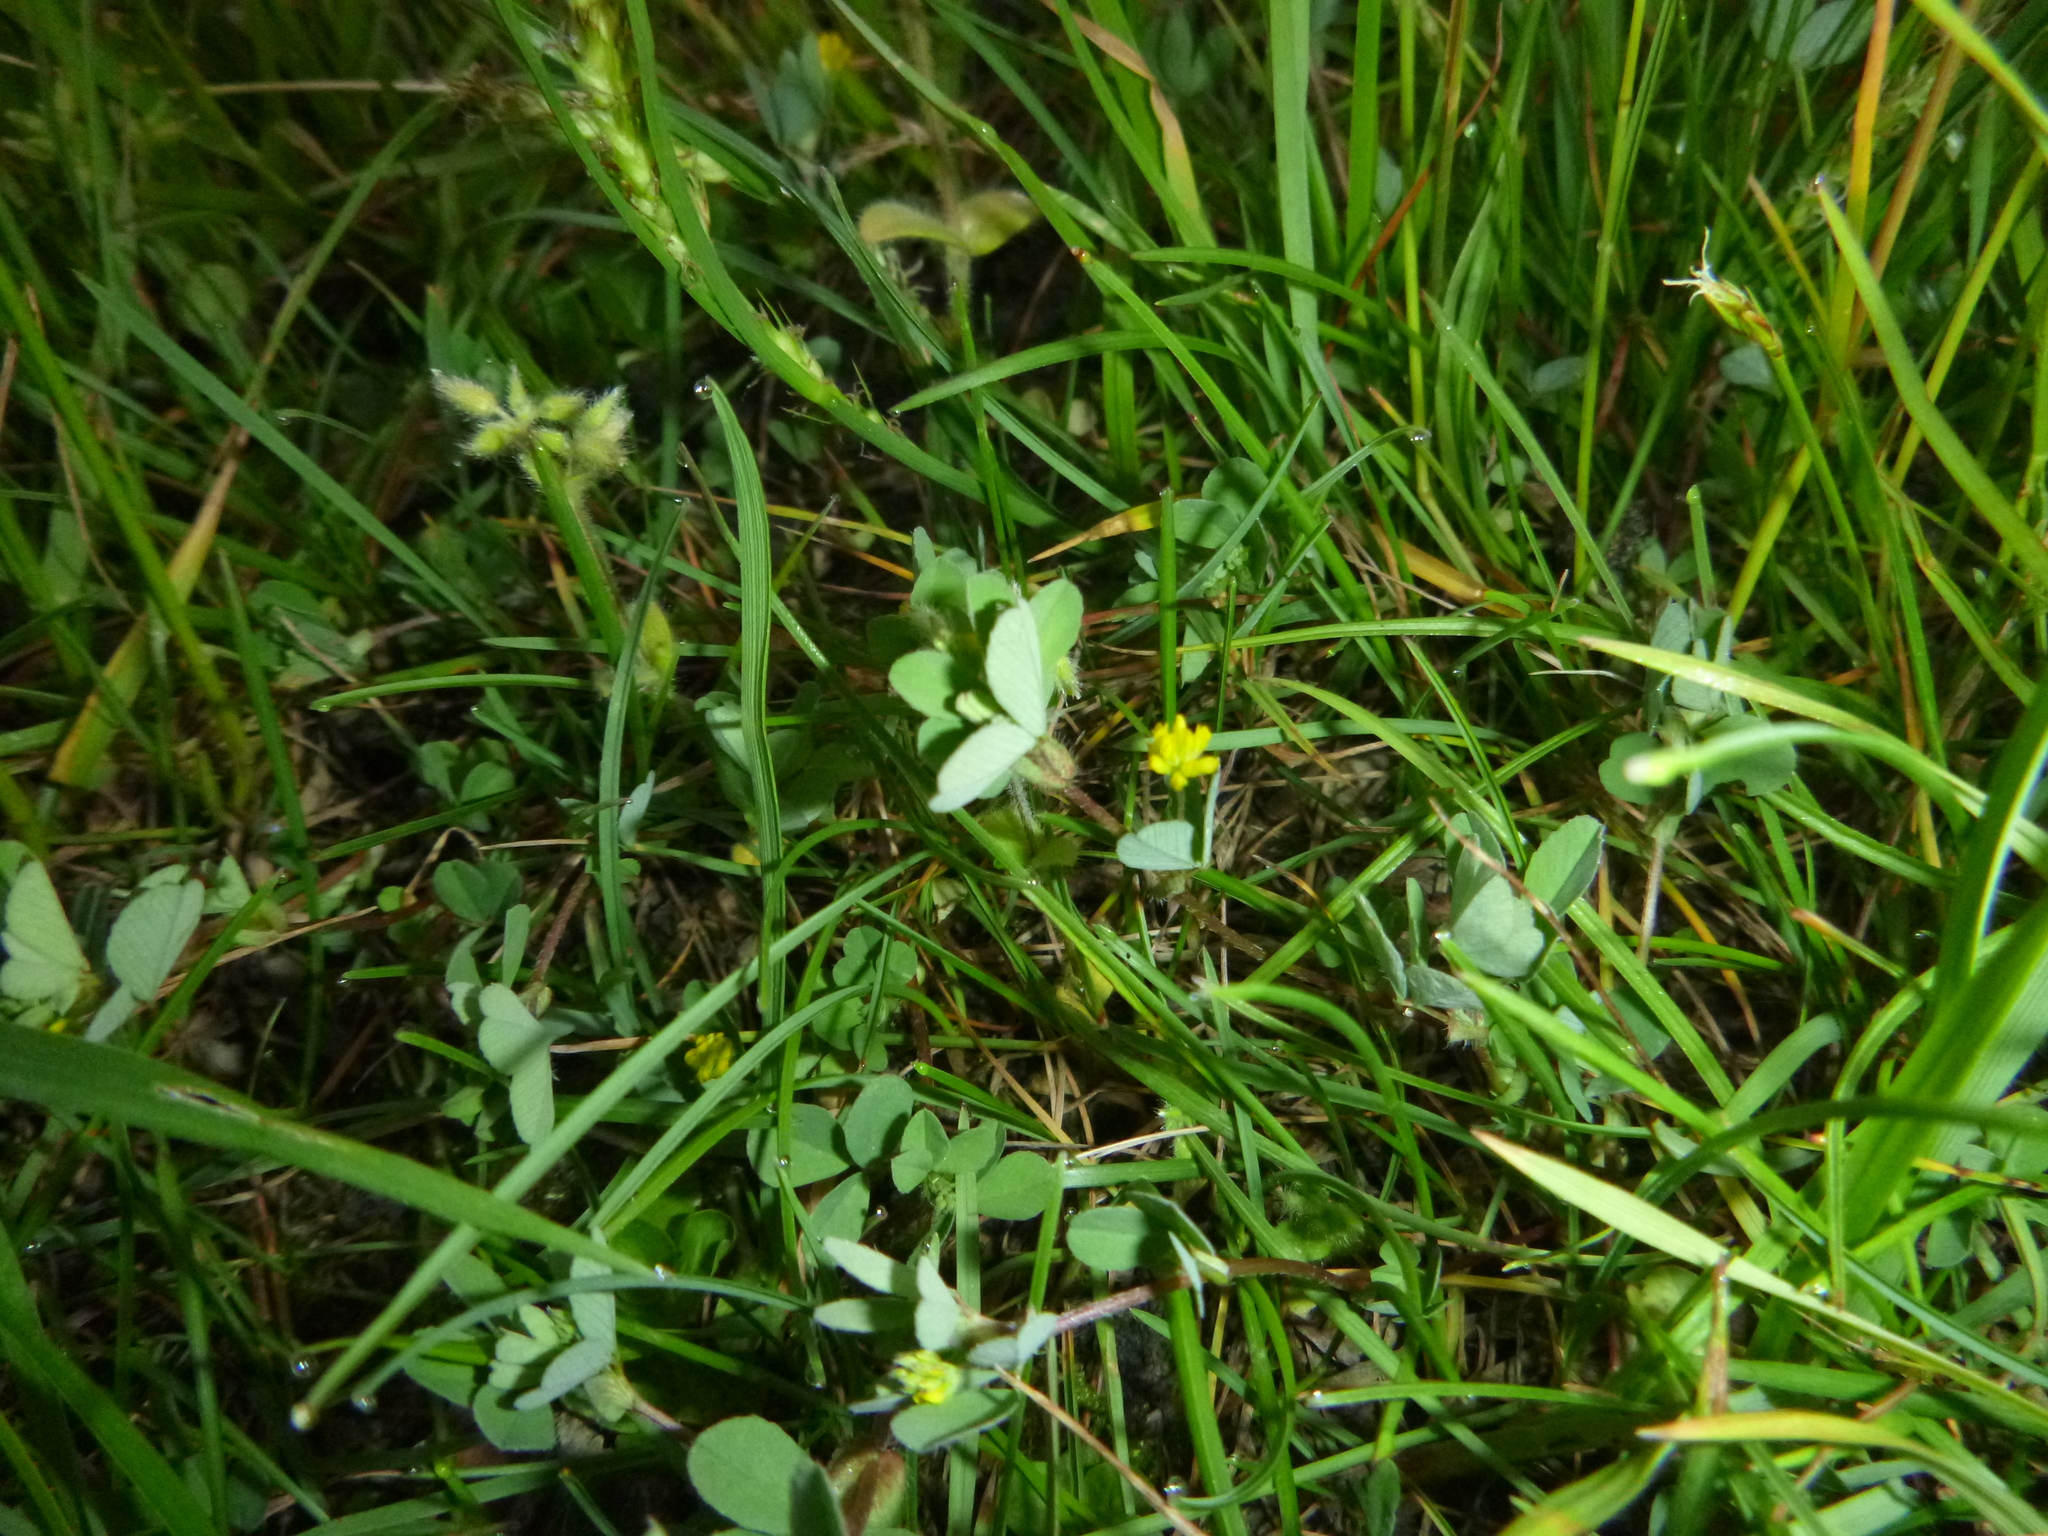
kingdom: Plantae
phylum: Tracheophyta
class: Magnoliopsida
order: Fabales
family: Fabaceae
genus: Trifolium
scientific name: Trifolium dubium
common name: Suckling clover
